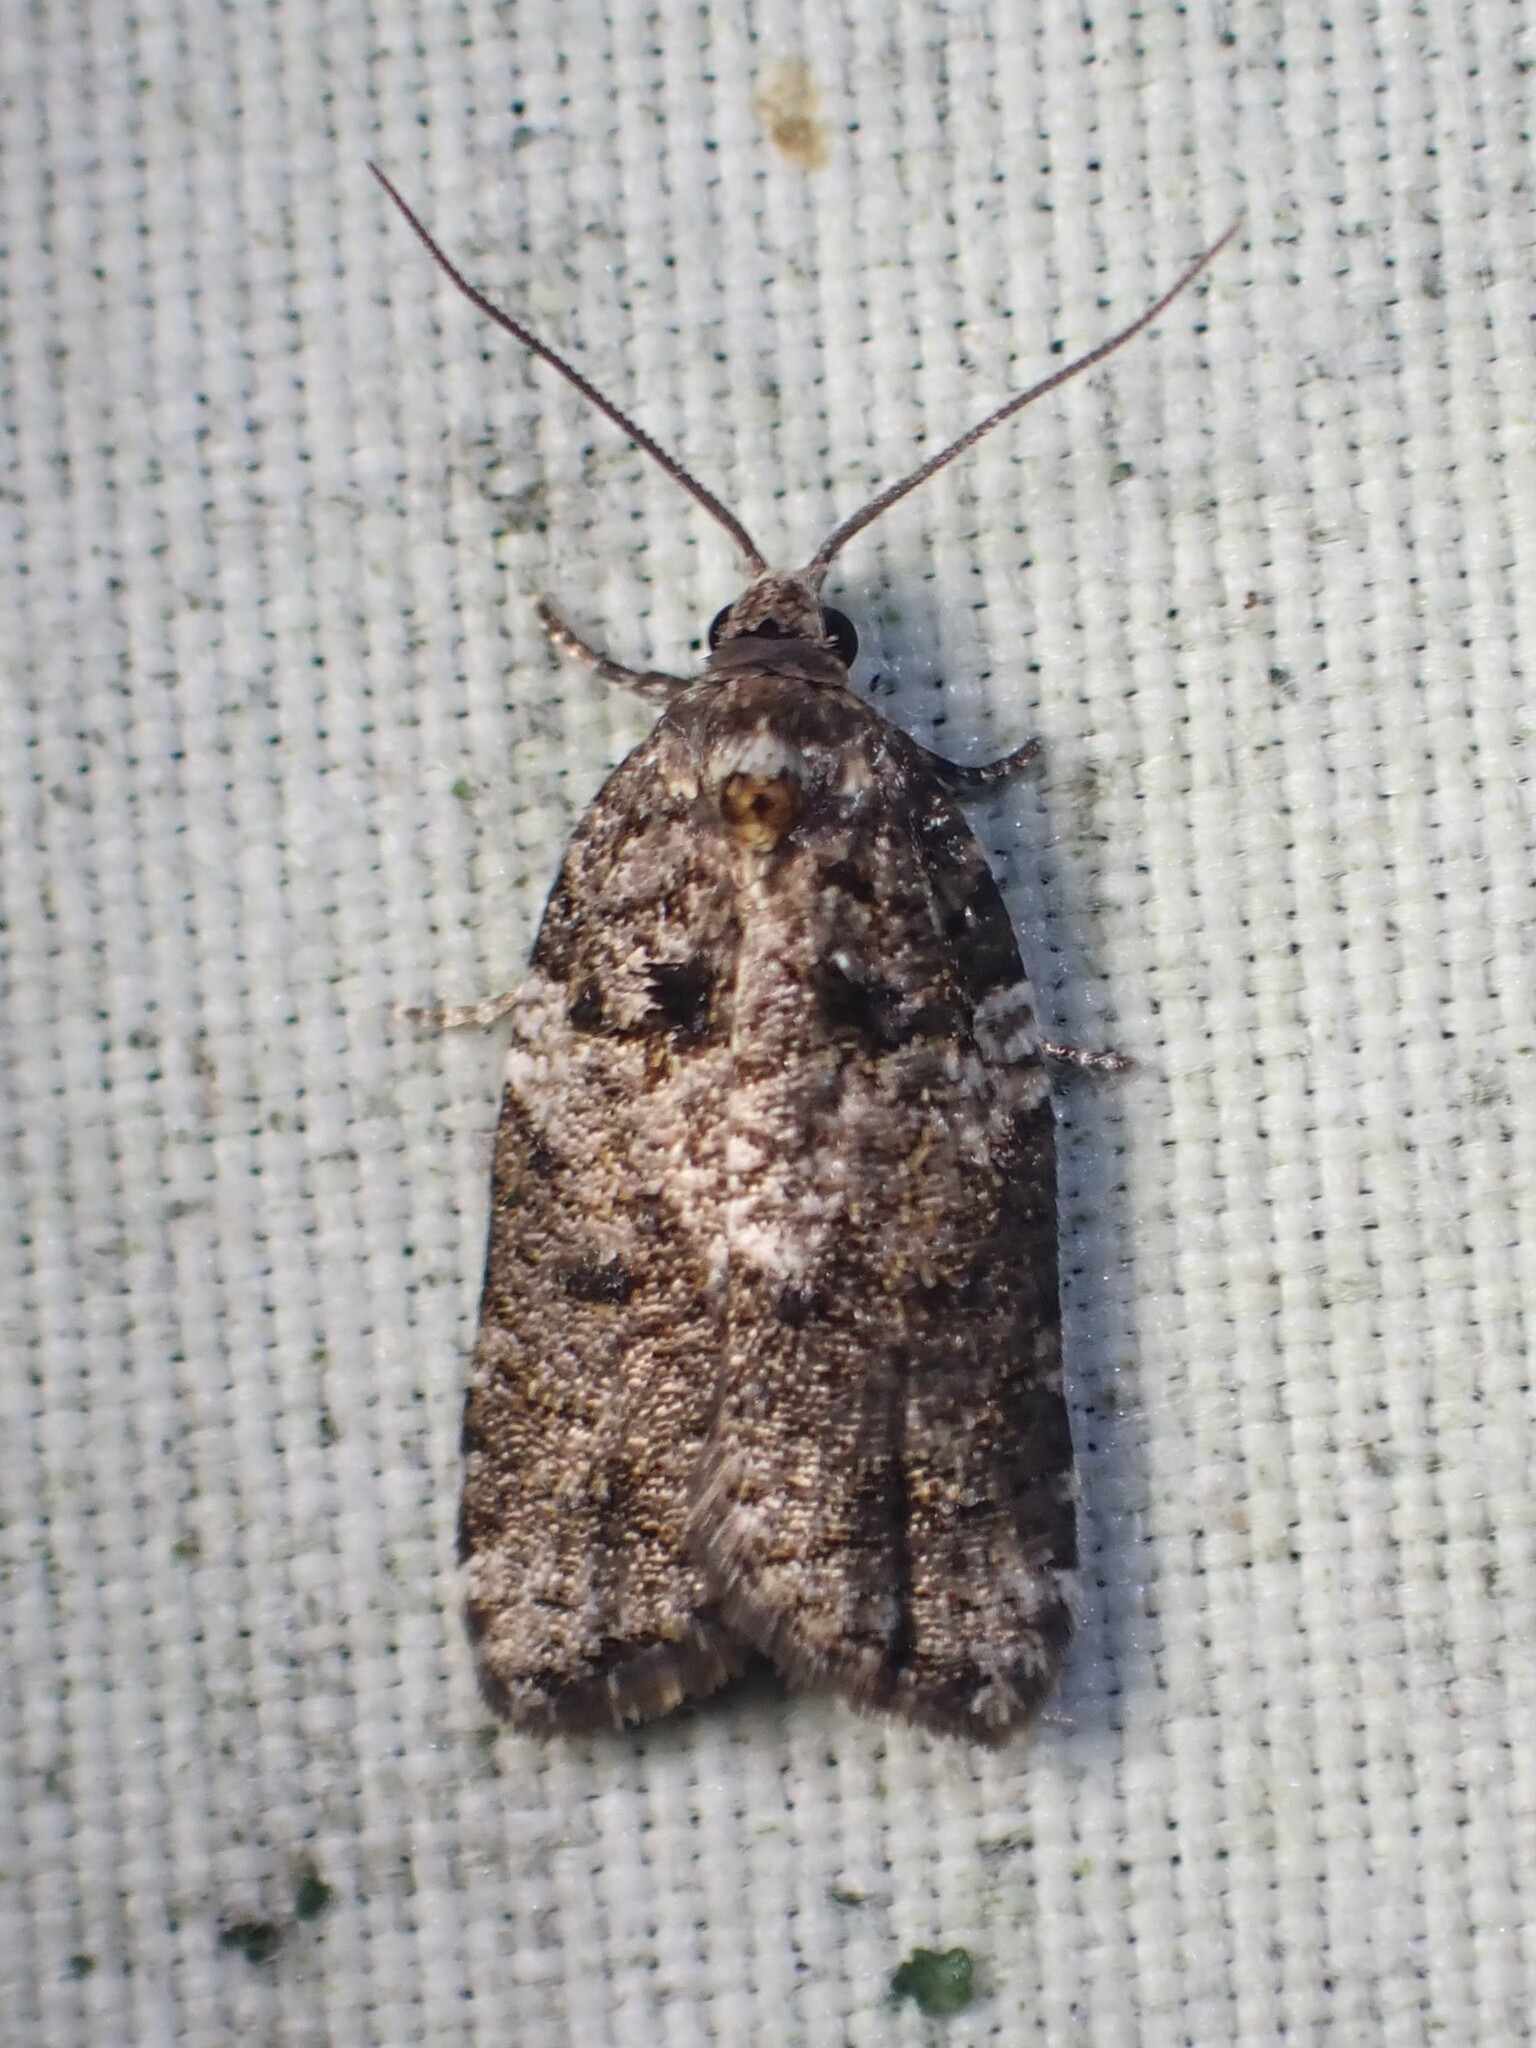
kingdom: Animalia
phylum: Arthropoda
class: Insecta
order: Lepidoptera
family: Tortricidae
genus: Acleris
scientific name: Acleris variana
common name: Eastern black-headed budworm moth
